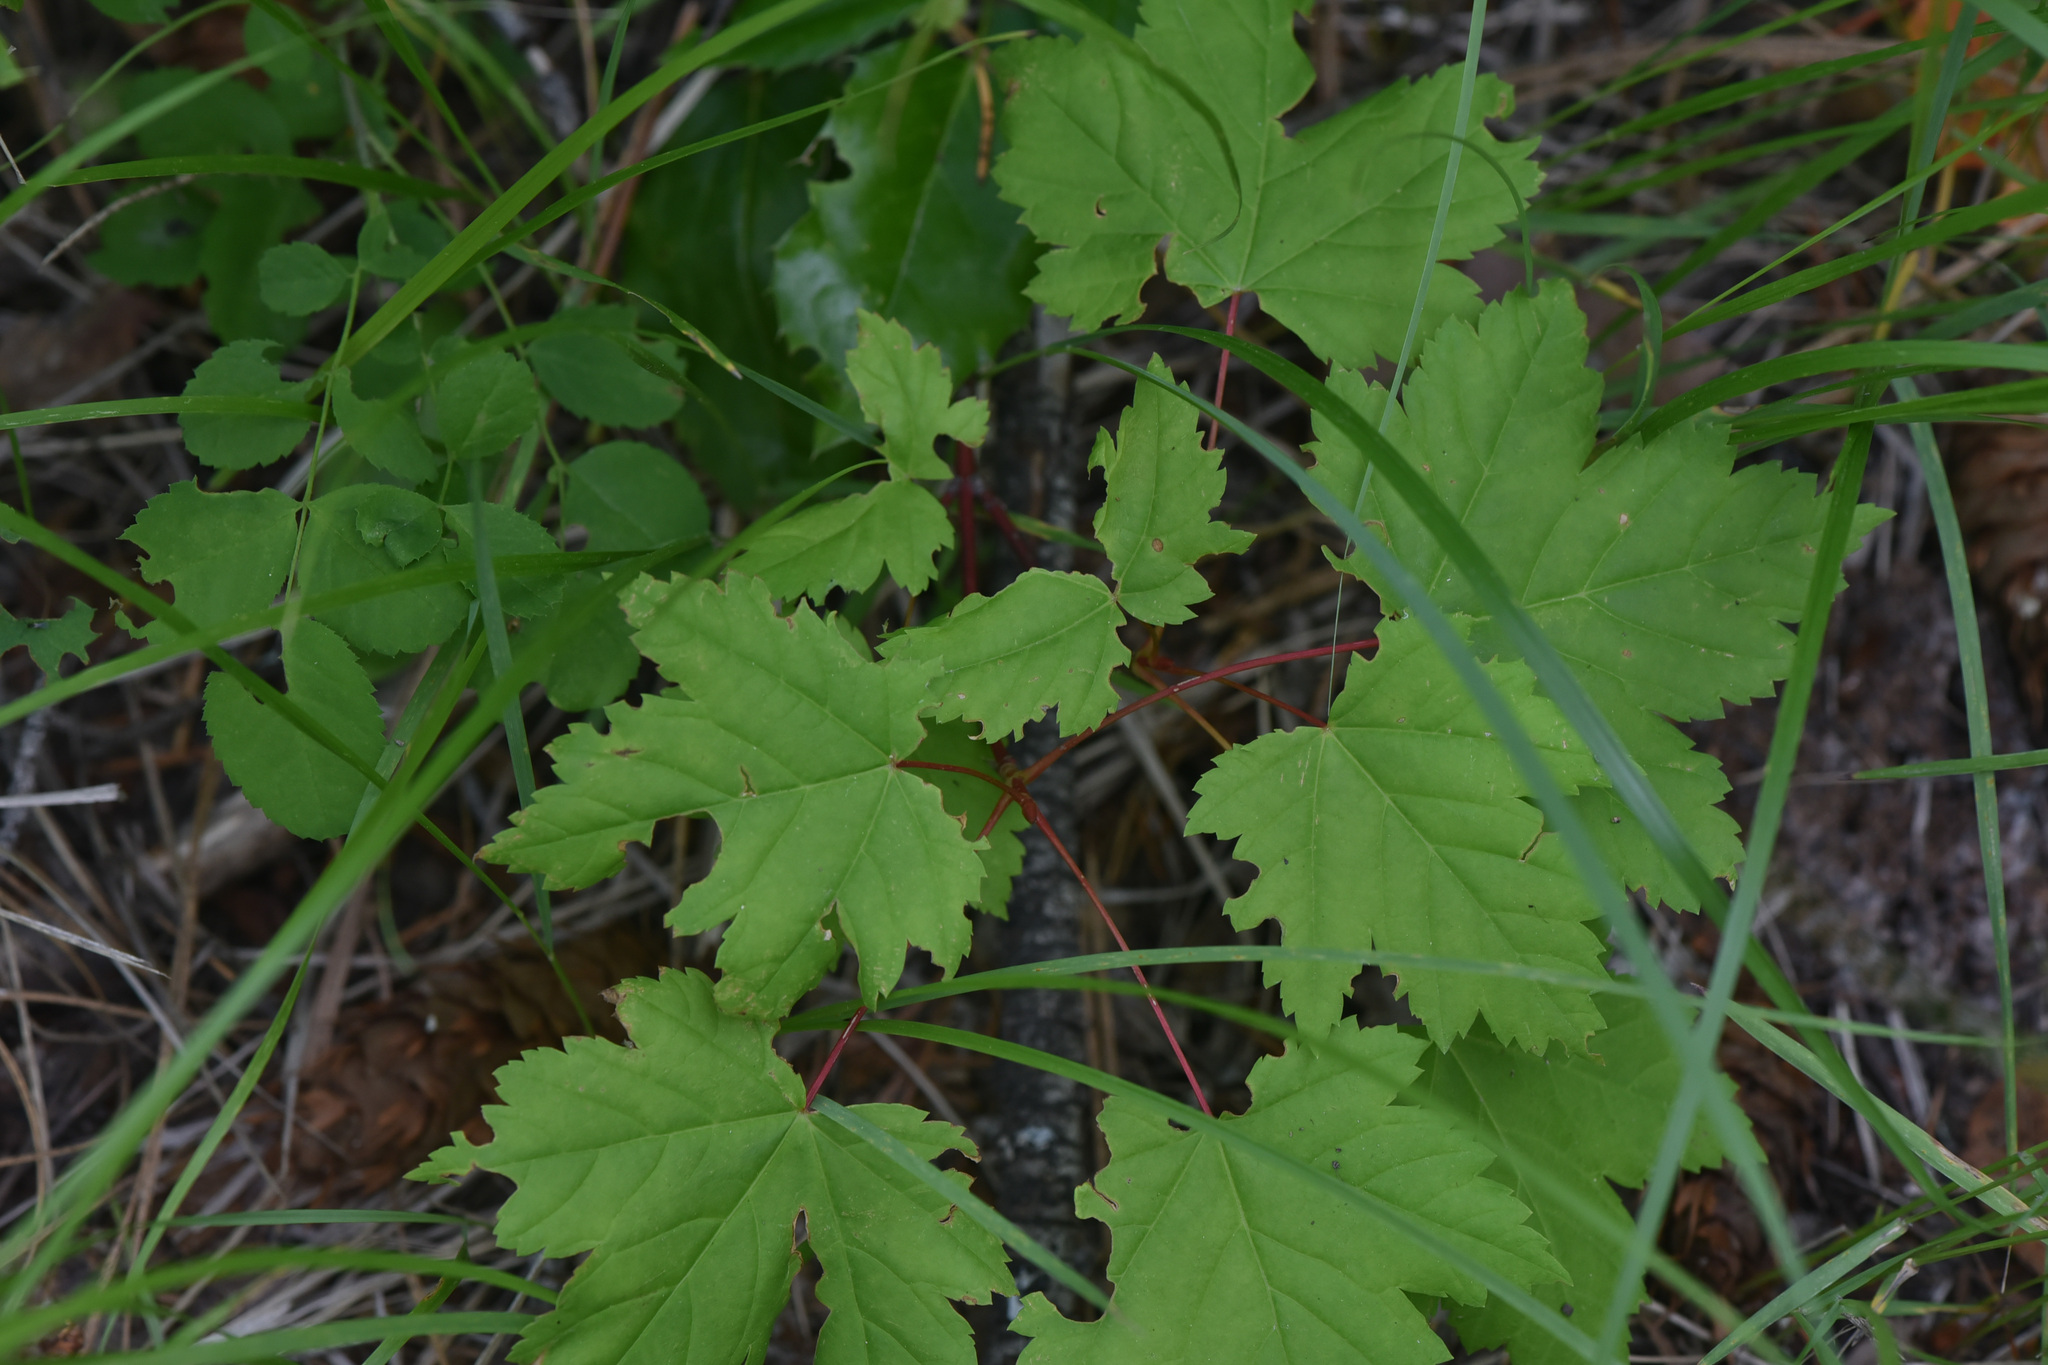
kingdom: Plantae
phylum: Tracheophyta
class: Magnoliopsida
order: Sapindales
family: Sapindaceae
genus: Acer
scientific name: Acer glabrum
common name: Rocky mountain maple
